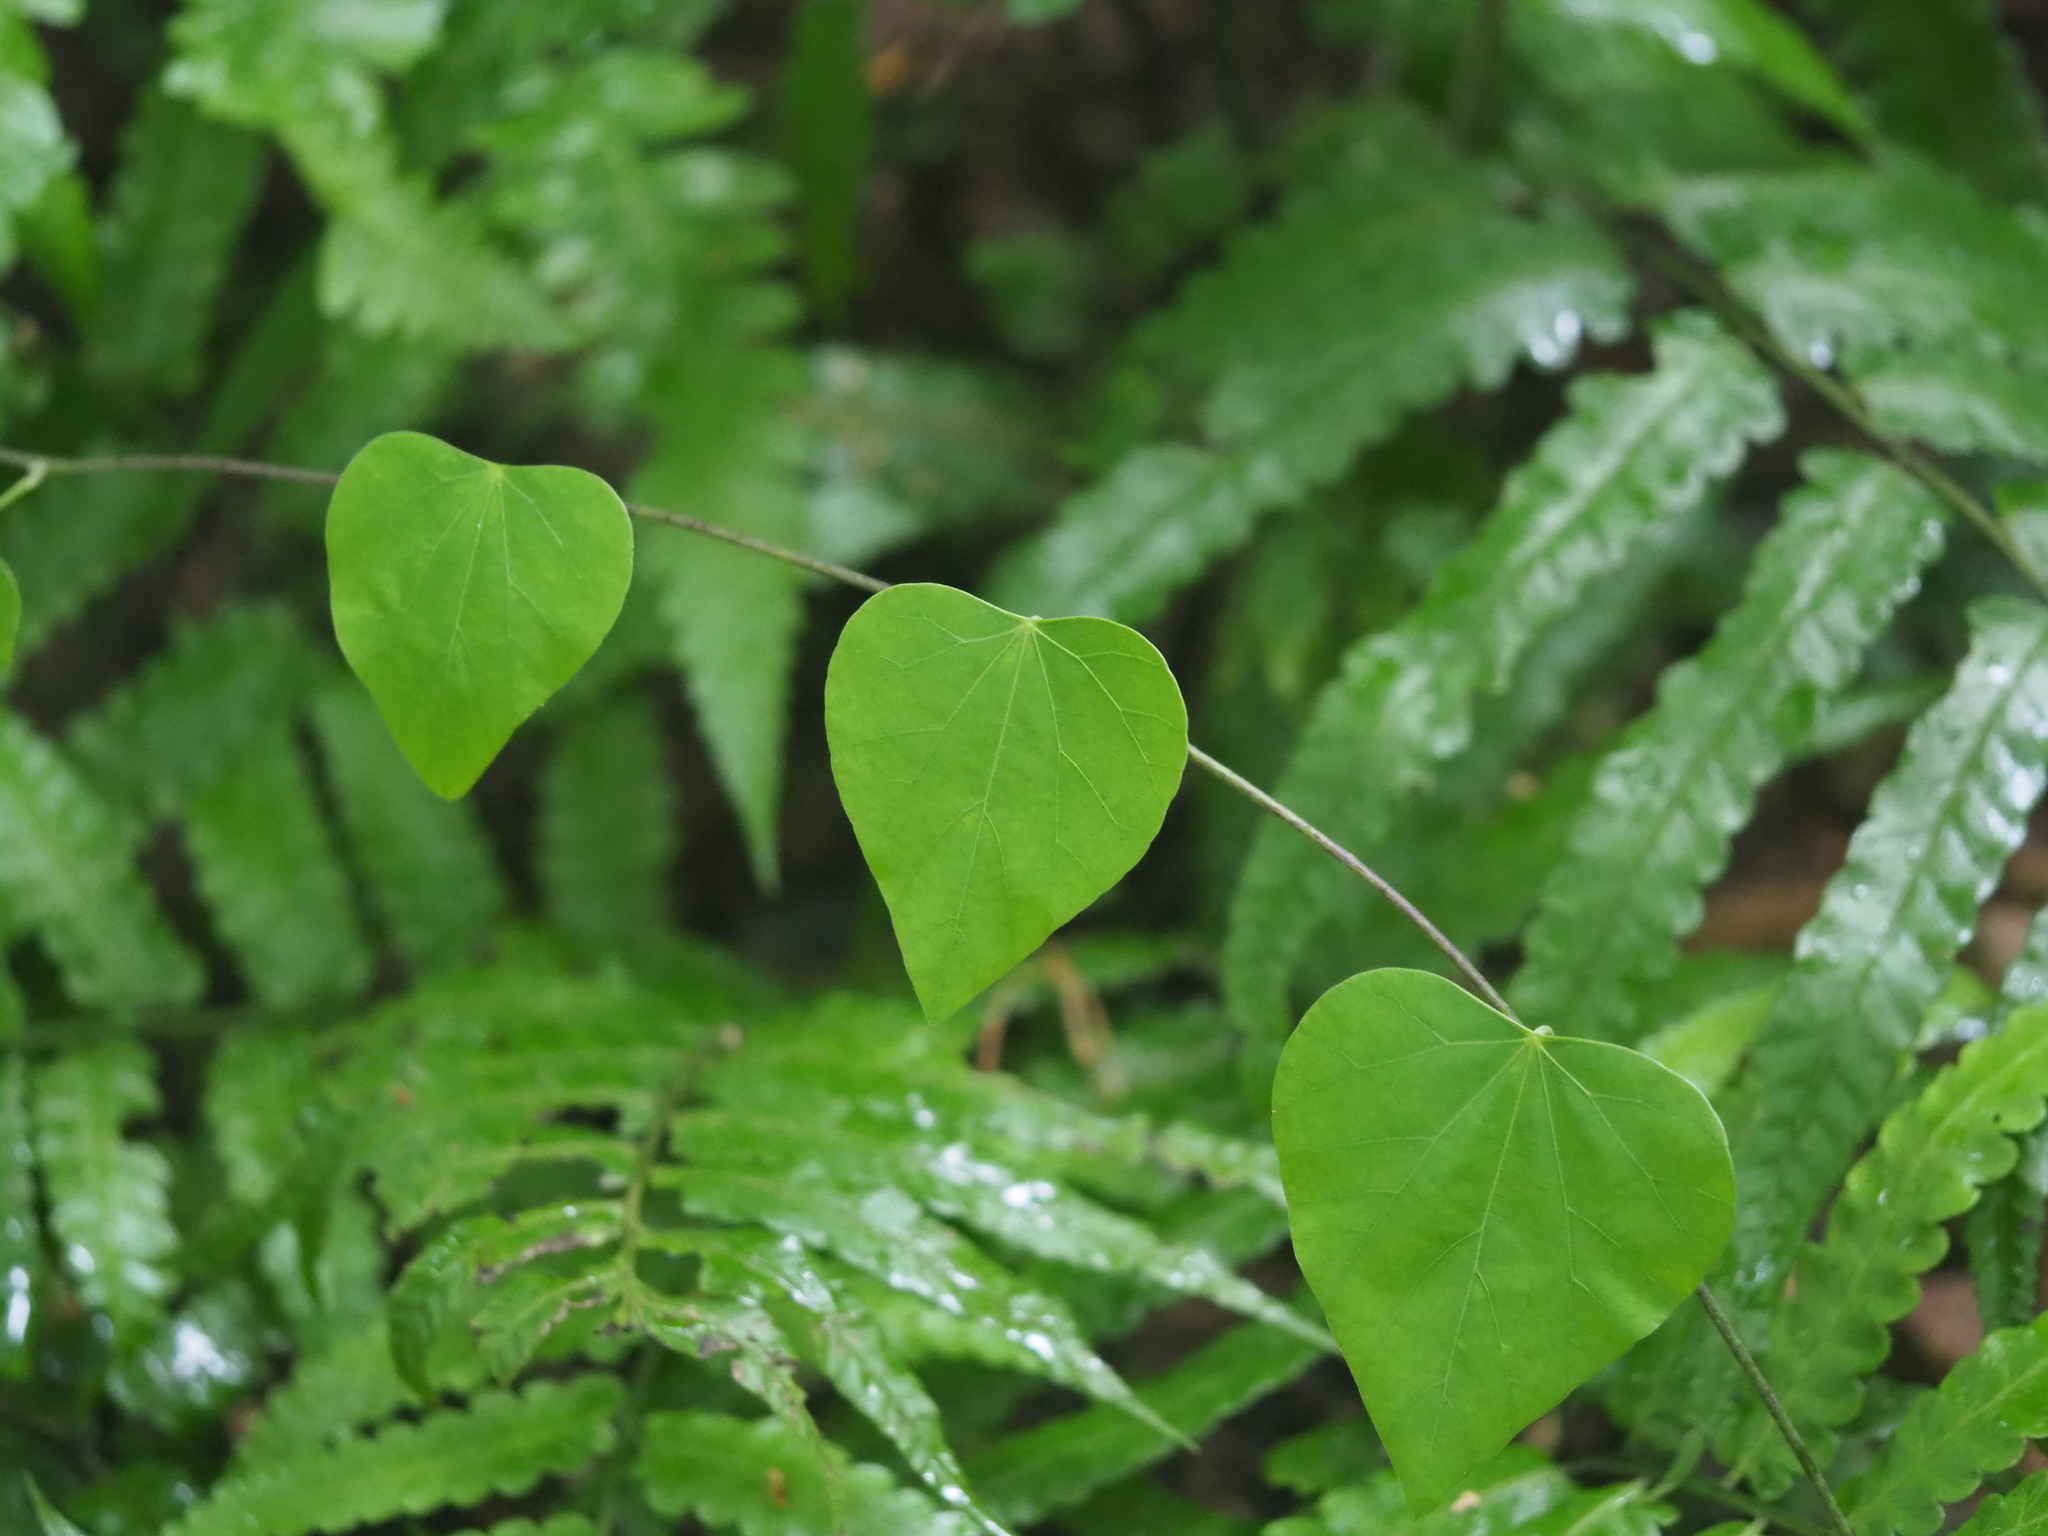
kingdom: Plantae
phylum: Tracheophyta
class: Magnoliopsida
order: Ranunculales
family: Menispermaceae
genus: Pericampylus
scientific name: Pericampylus glaucus
